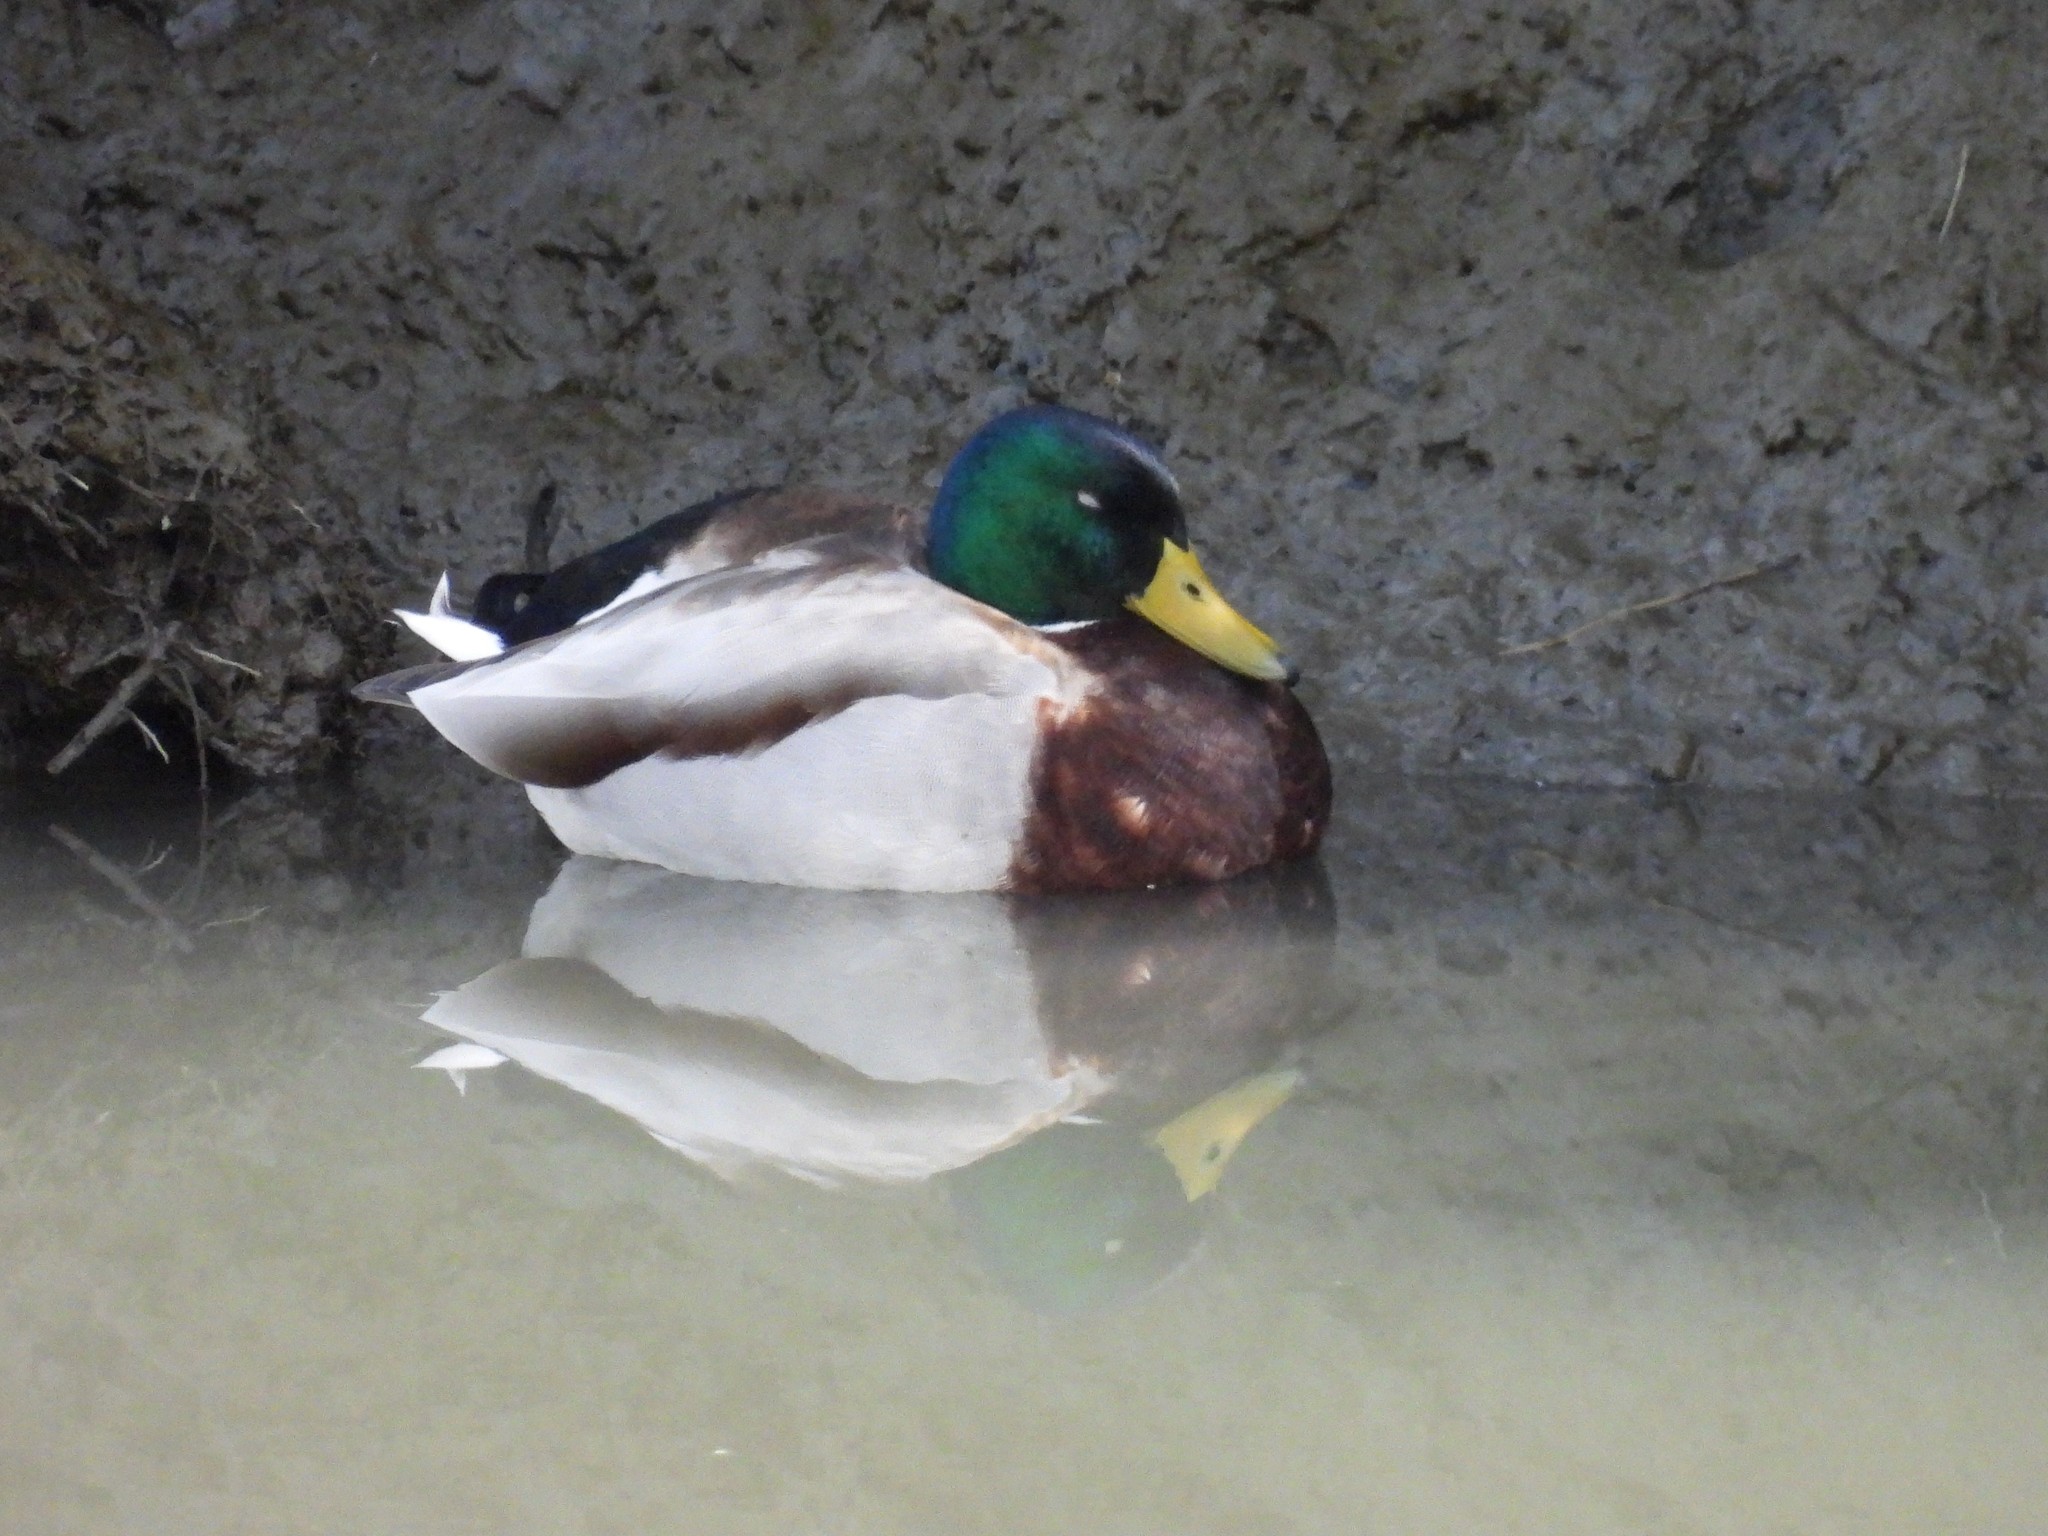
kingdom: Animalia
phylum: Chordata
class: Aves
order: Anseriformes
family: Anatidae
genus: Anas
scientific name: Anas platyrhynchos
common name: Mallard
